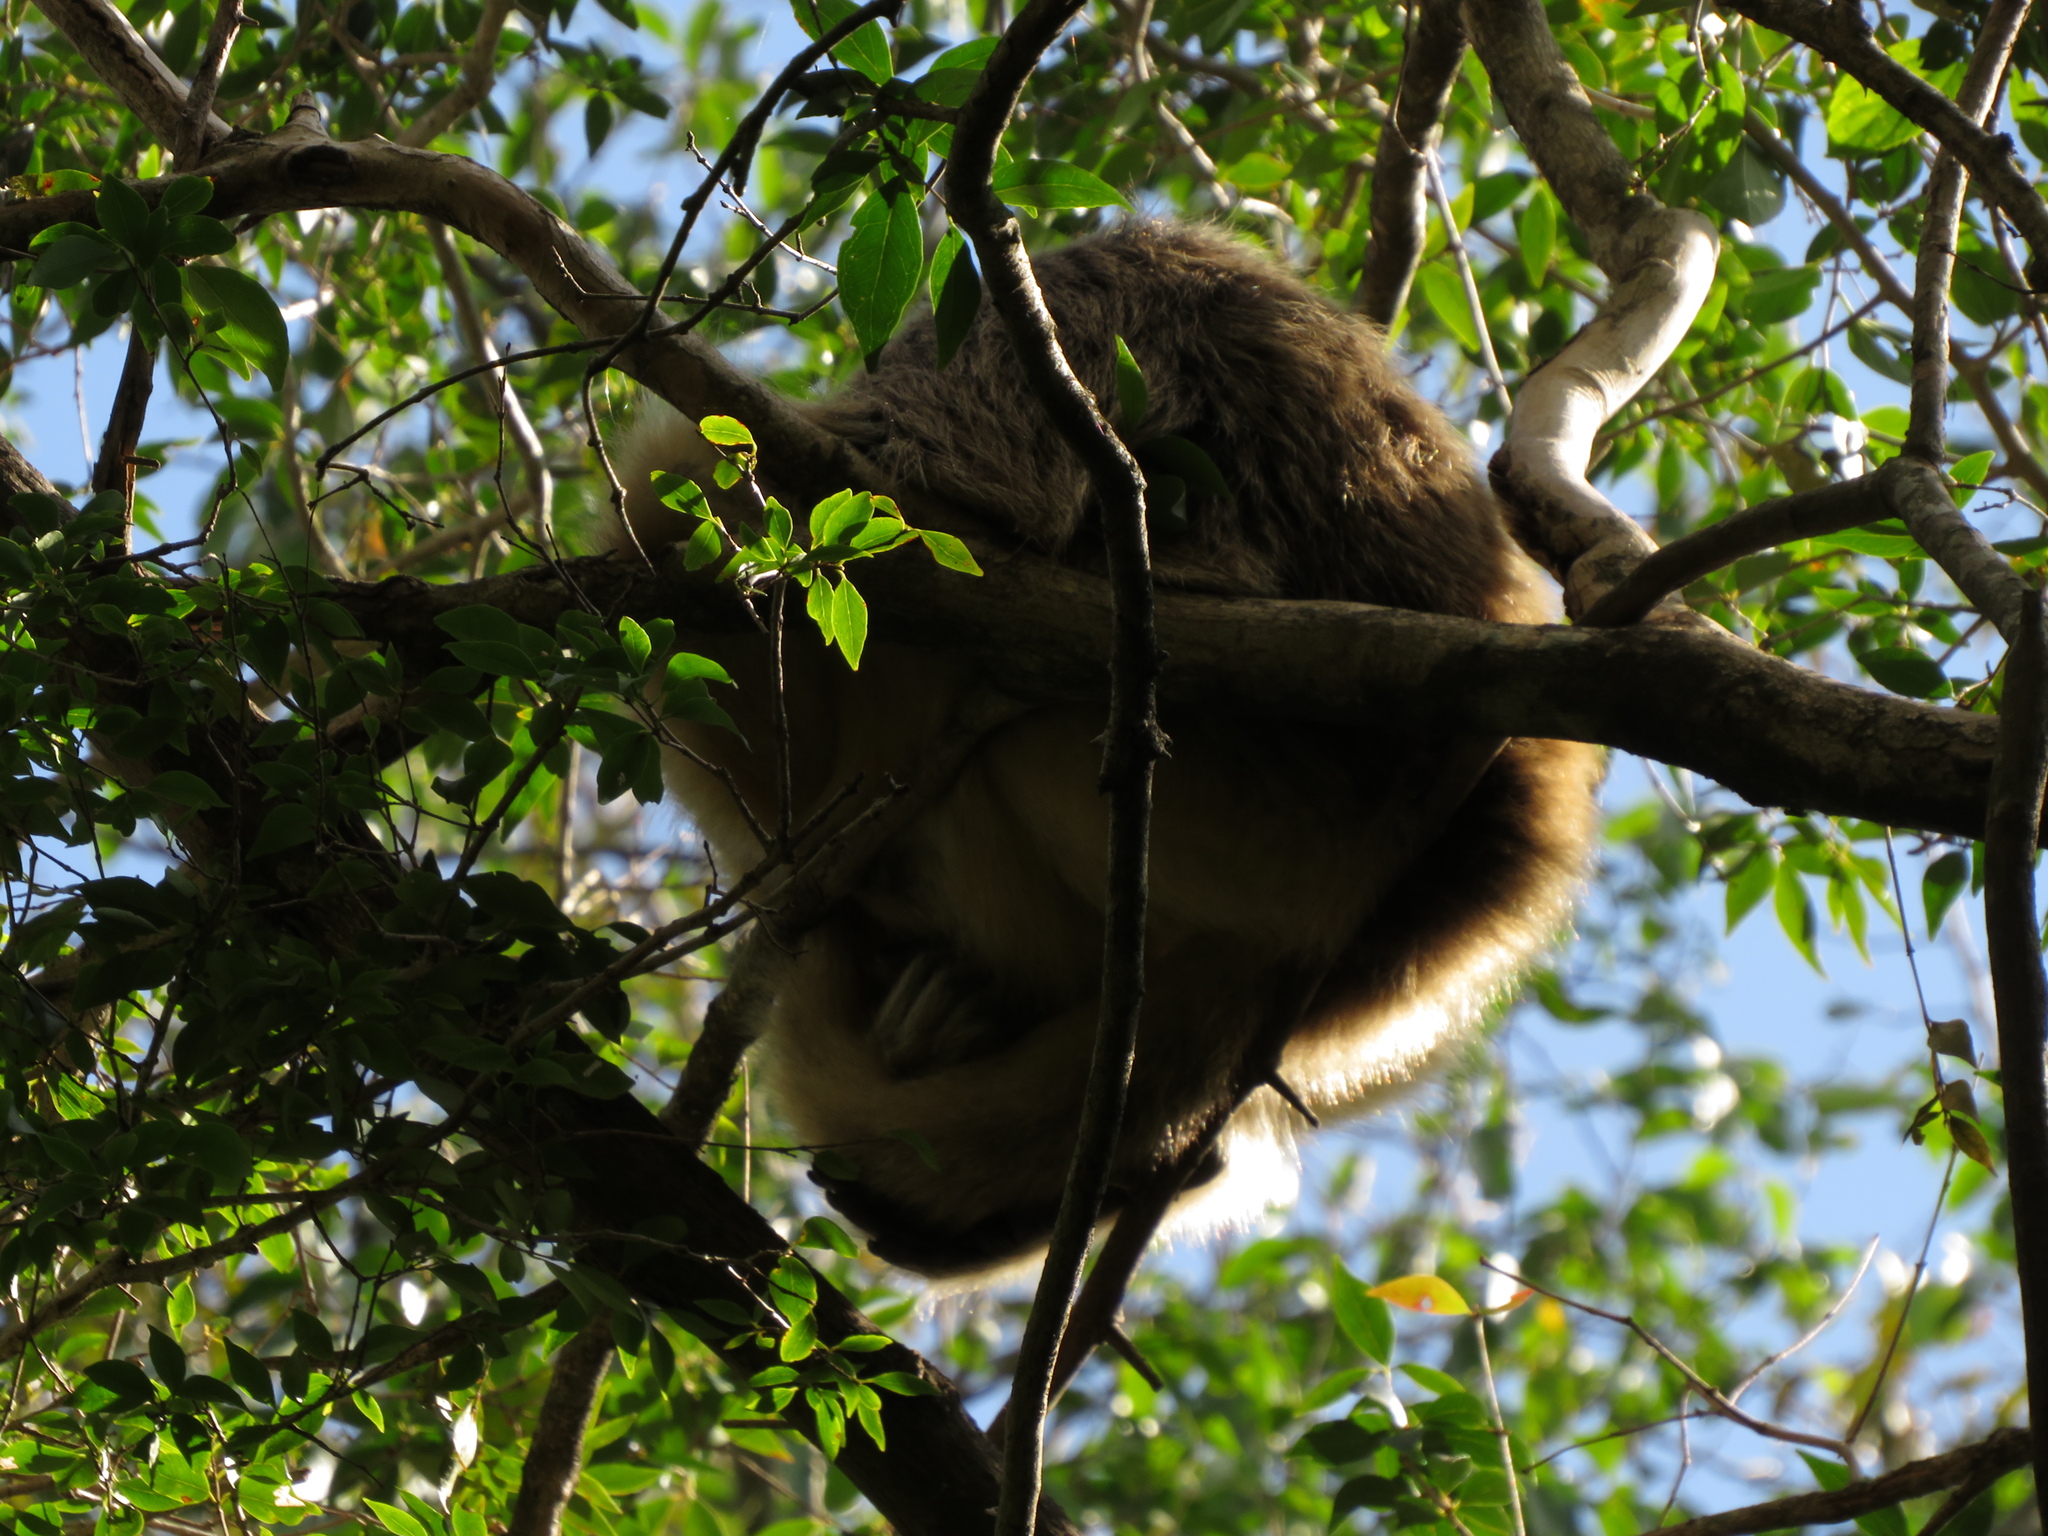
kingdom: Animalia
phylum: Chordata
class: Mammalia
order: Primates
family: Atelidae
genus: Alouatta
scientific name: Alouatta caraya
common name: Black howler
